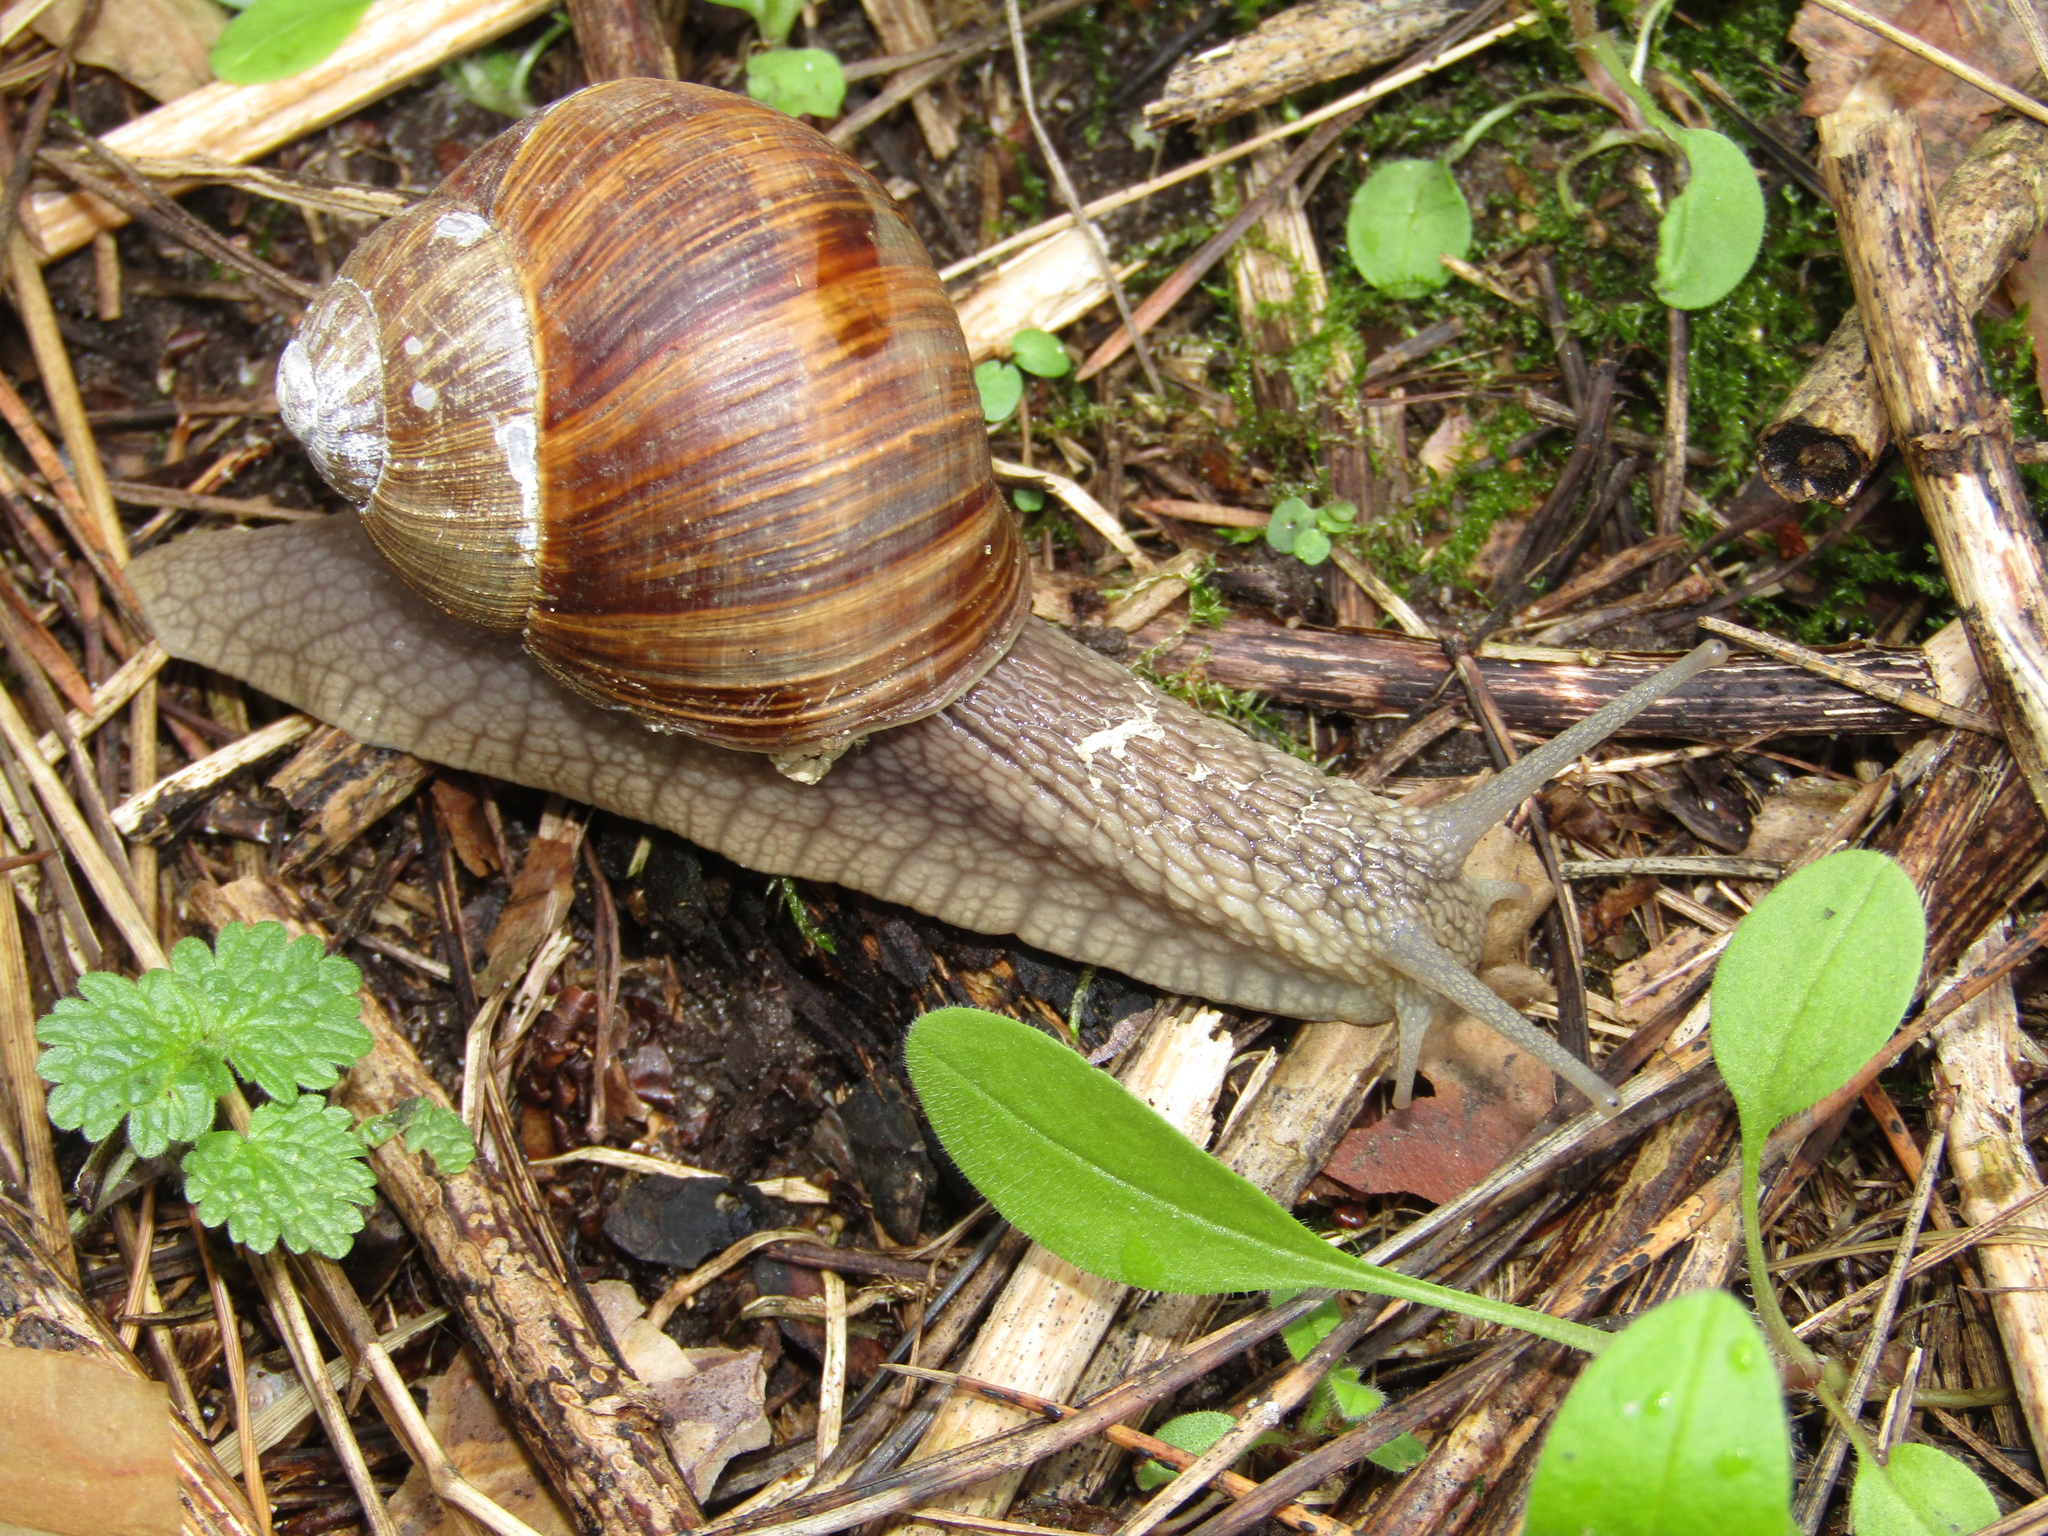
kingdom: Animalia
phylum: Mollusca
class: Gastropoda
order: Stylommatophora
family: Helicidae
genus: Helix
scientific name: Helix pomatia
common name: Roman snail
